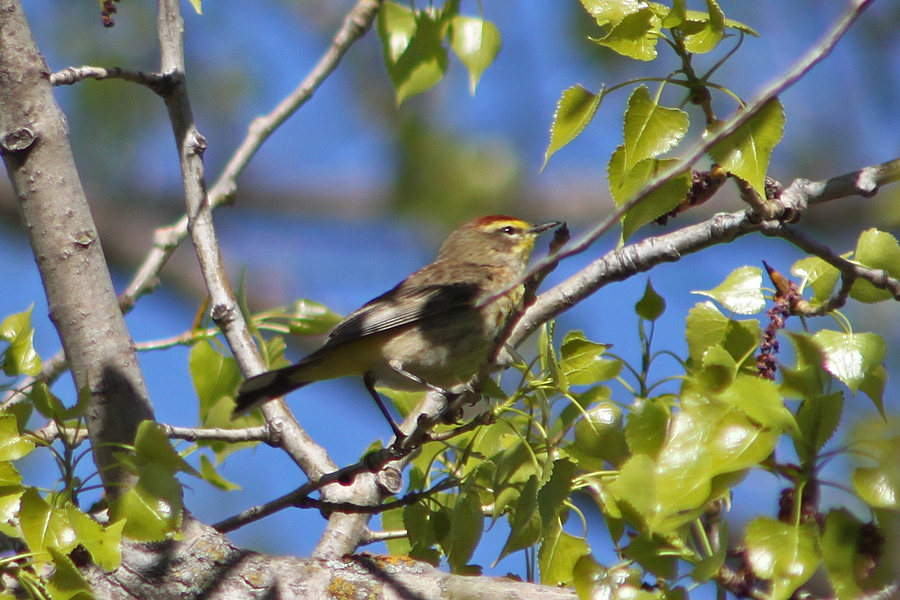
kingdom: Animalia
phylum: Chordata
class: Aves
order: Passeriformes
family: Parulidae
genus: Setophaga
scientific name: Setophaga palmarum
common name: Palm warbler
